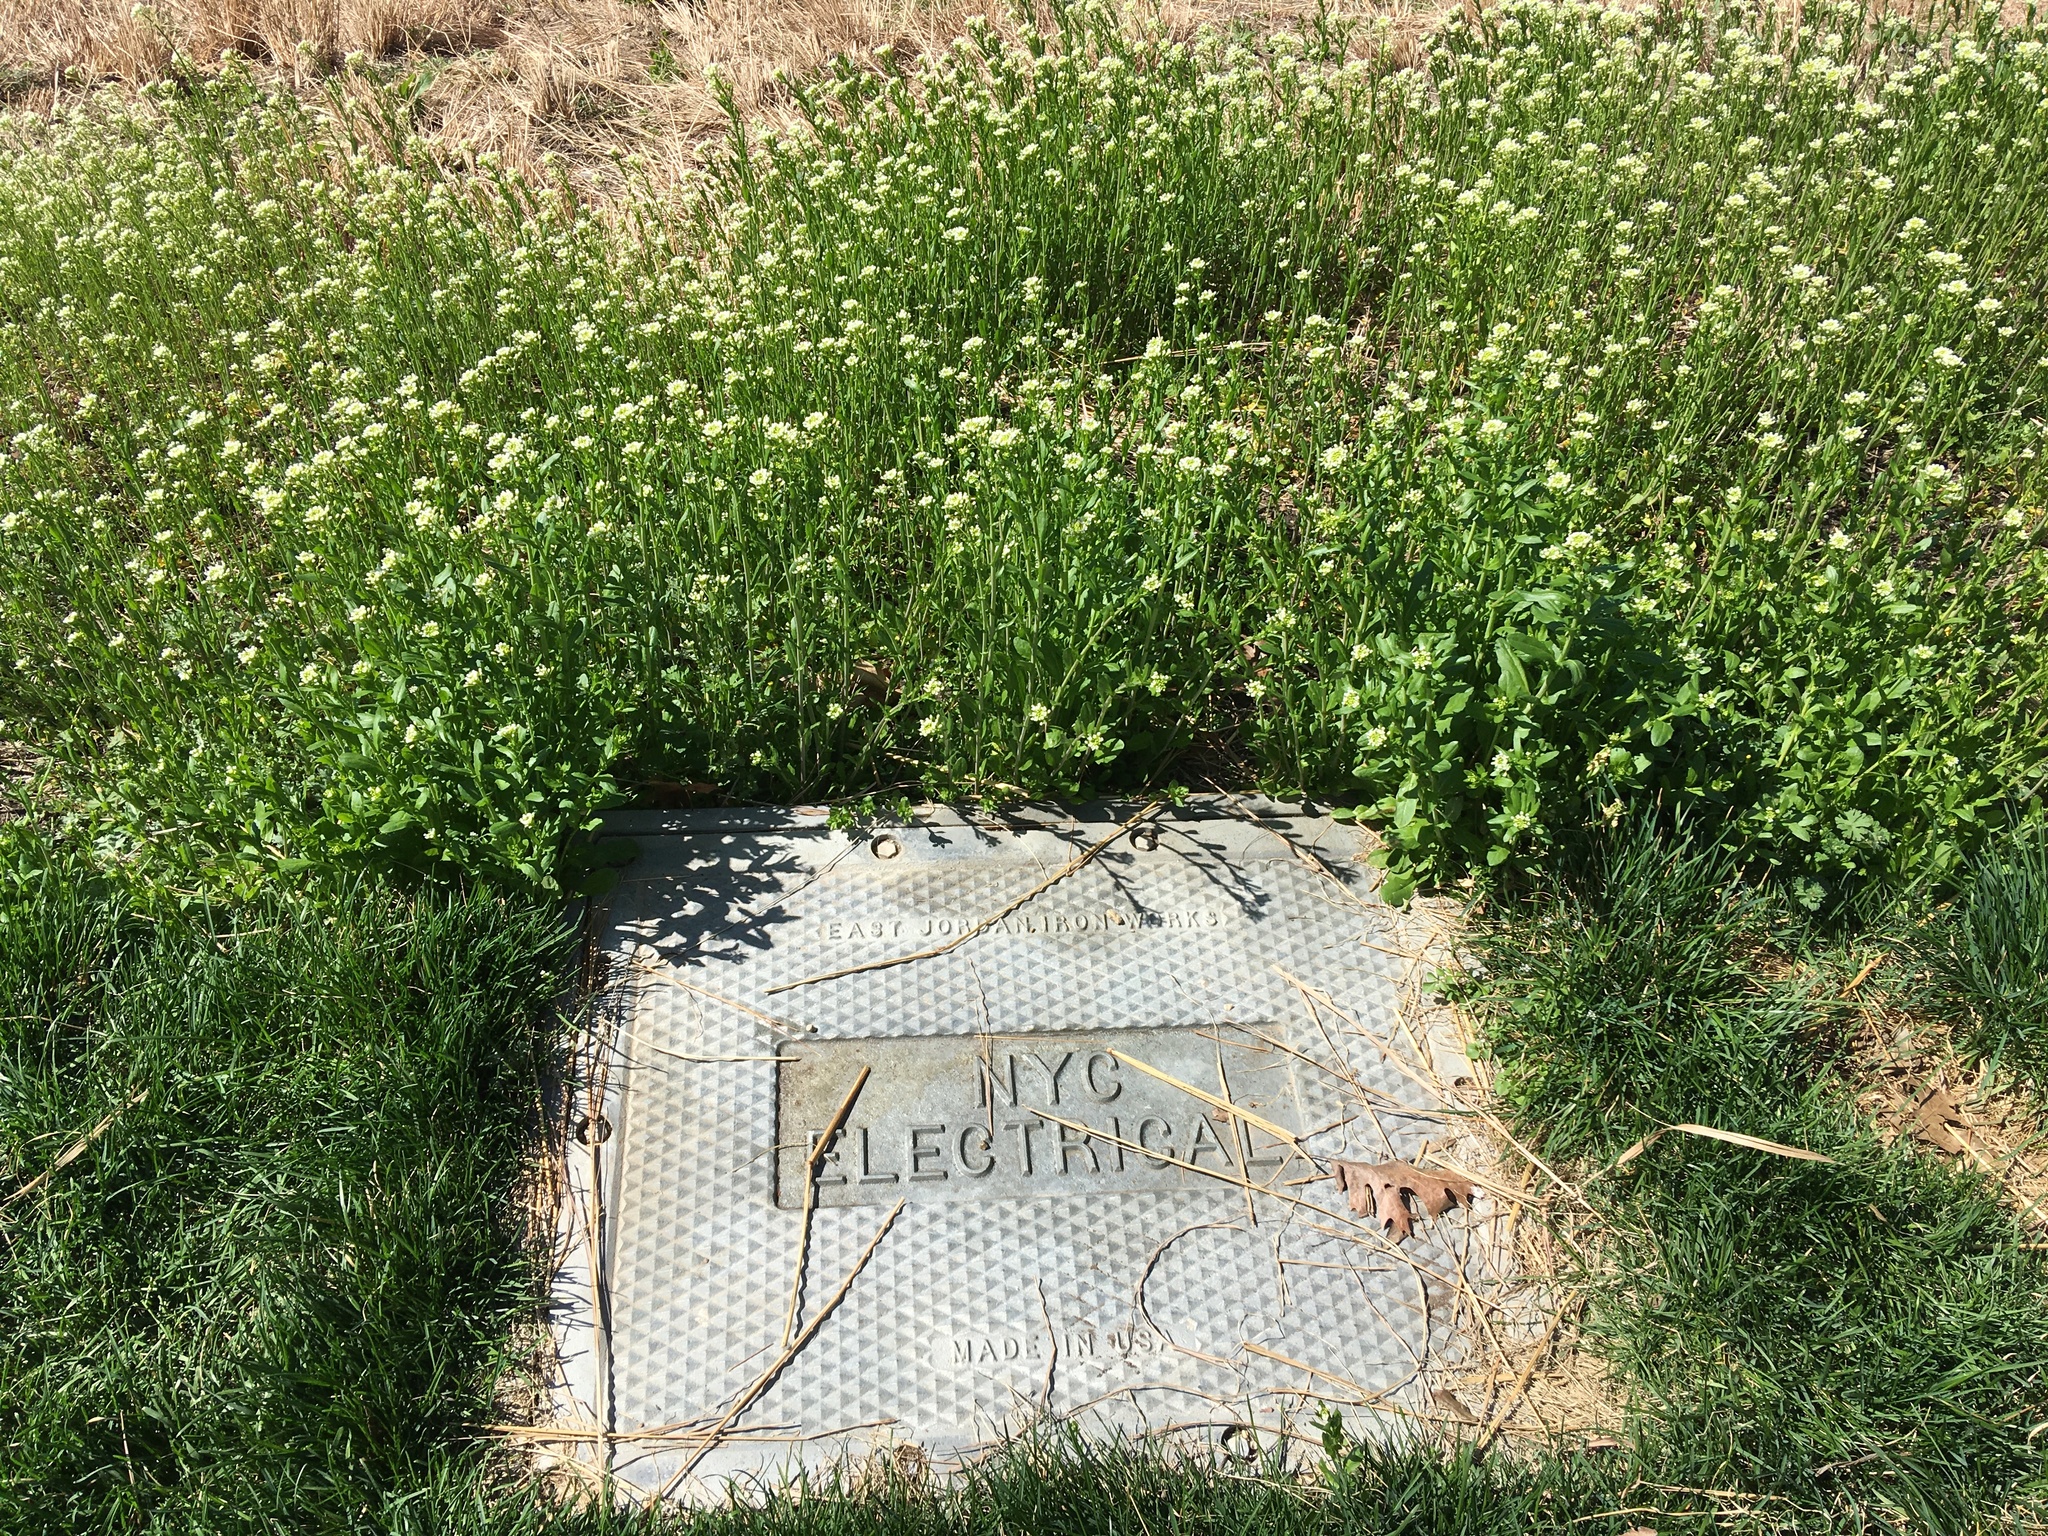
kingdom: Plantae
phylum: Tracheophyta
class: Magnoliopsida
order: Brassicales
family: Brassicaceae
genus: Mummenhoffia
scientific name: Mummenhoffia alliacea
